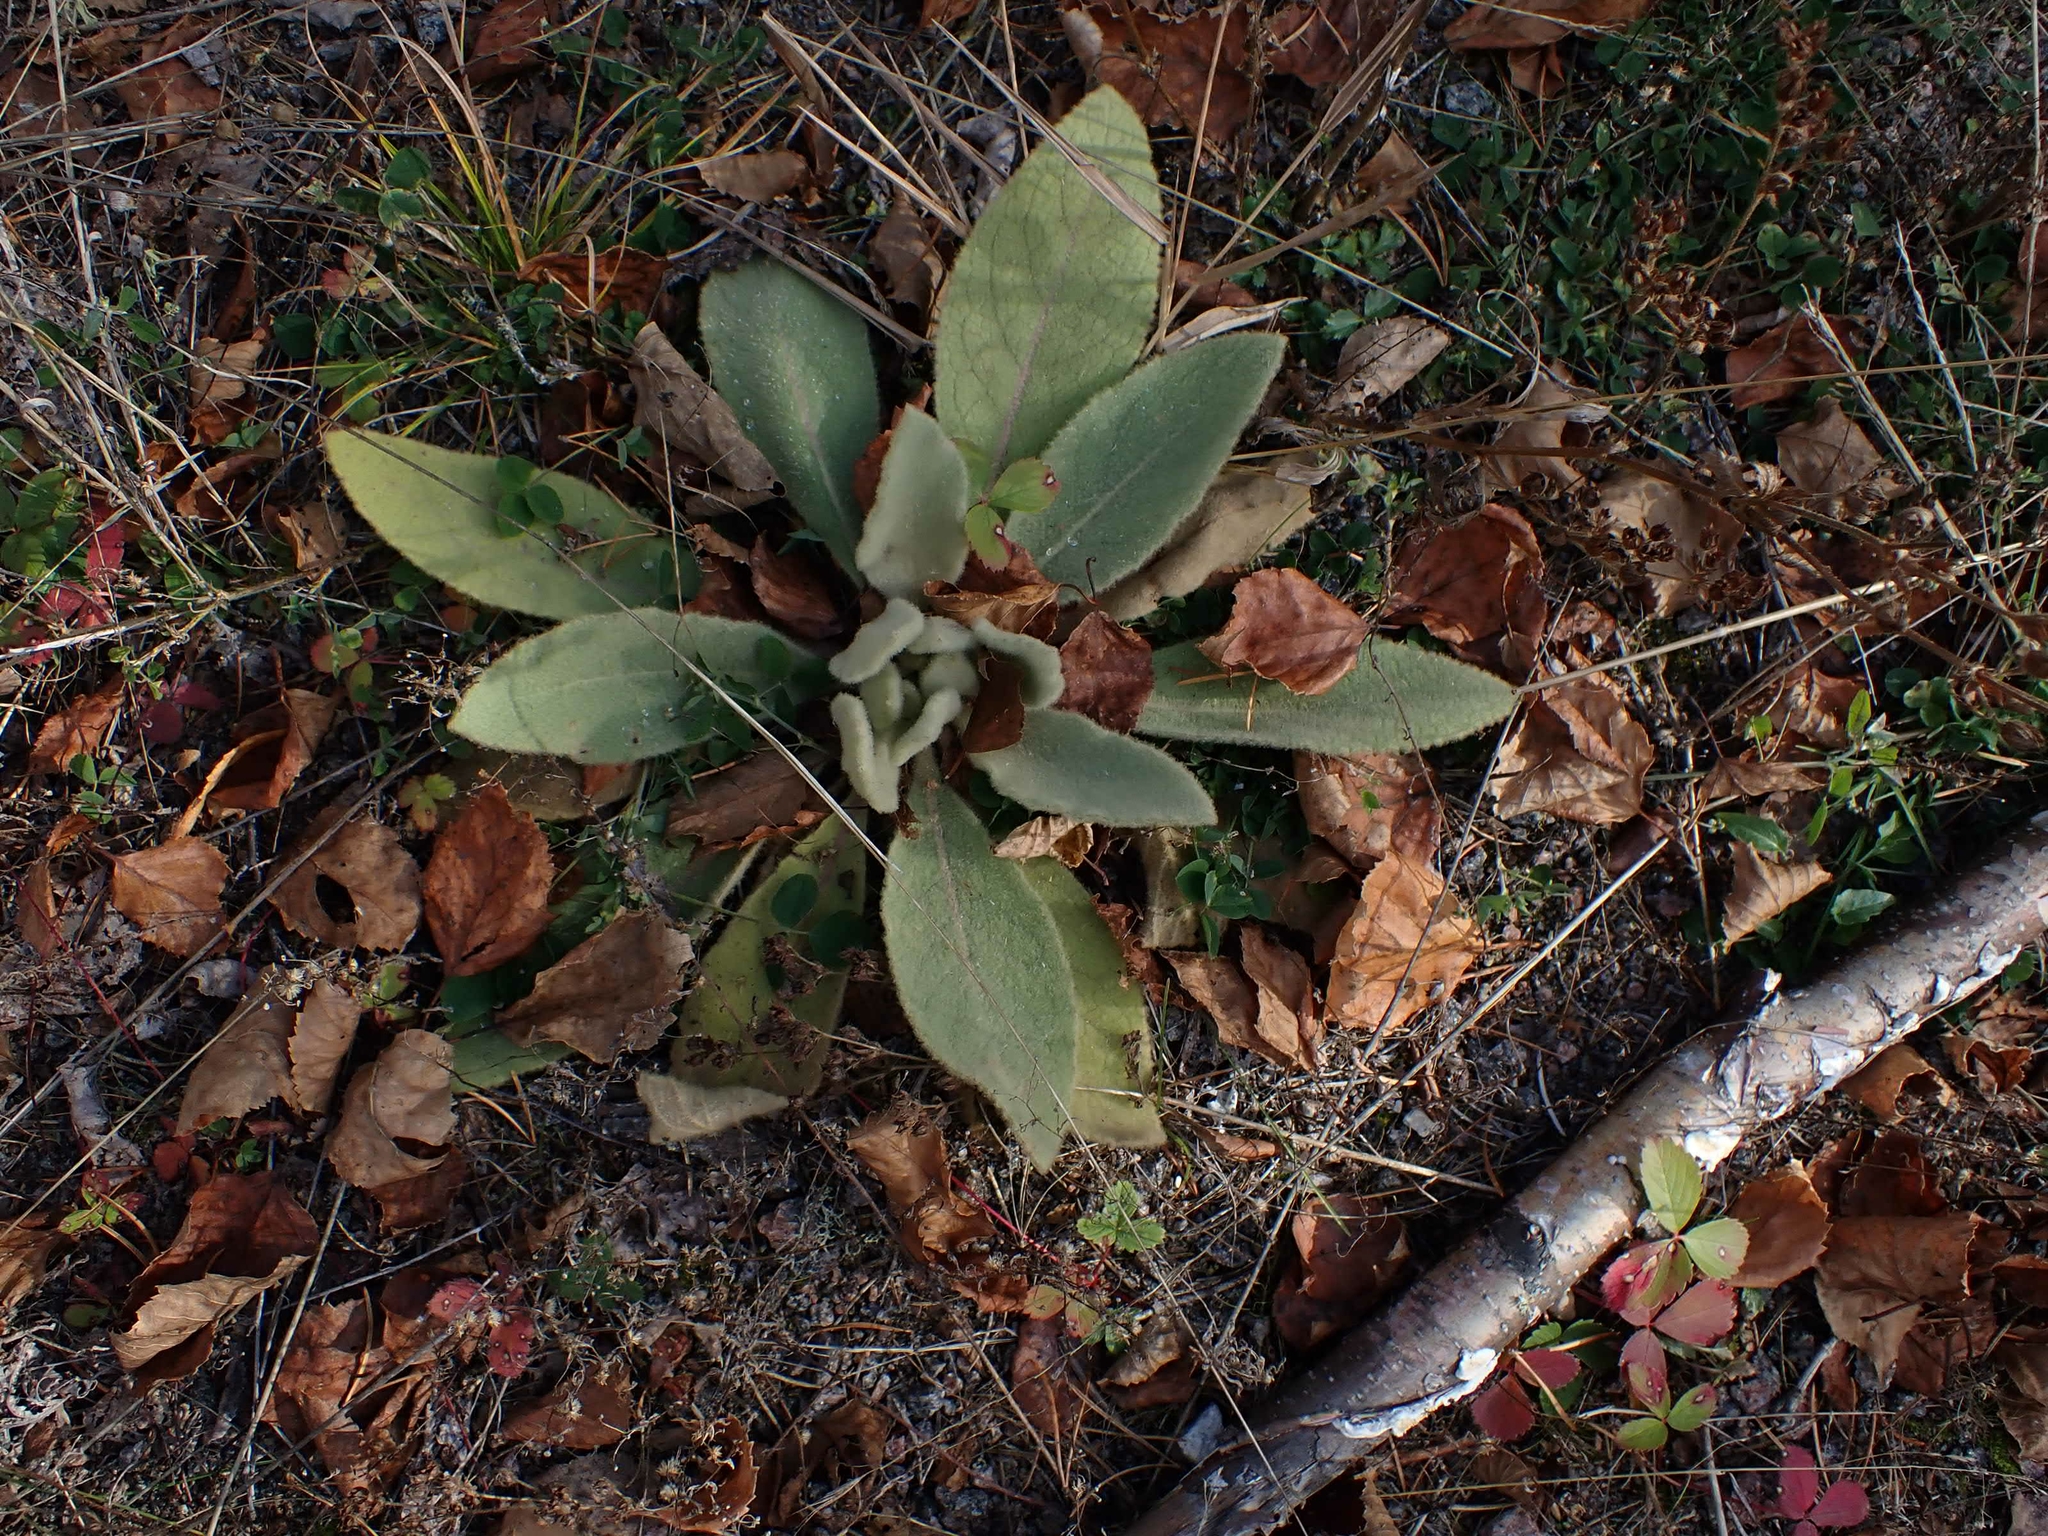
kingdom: Plantae
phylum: Tracheophyta
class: Magnoliopsida
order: Lamiales
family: Scrophulariaceae
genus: Verbascum
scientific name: Verbascum thapsus
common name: Common mullein
